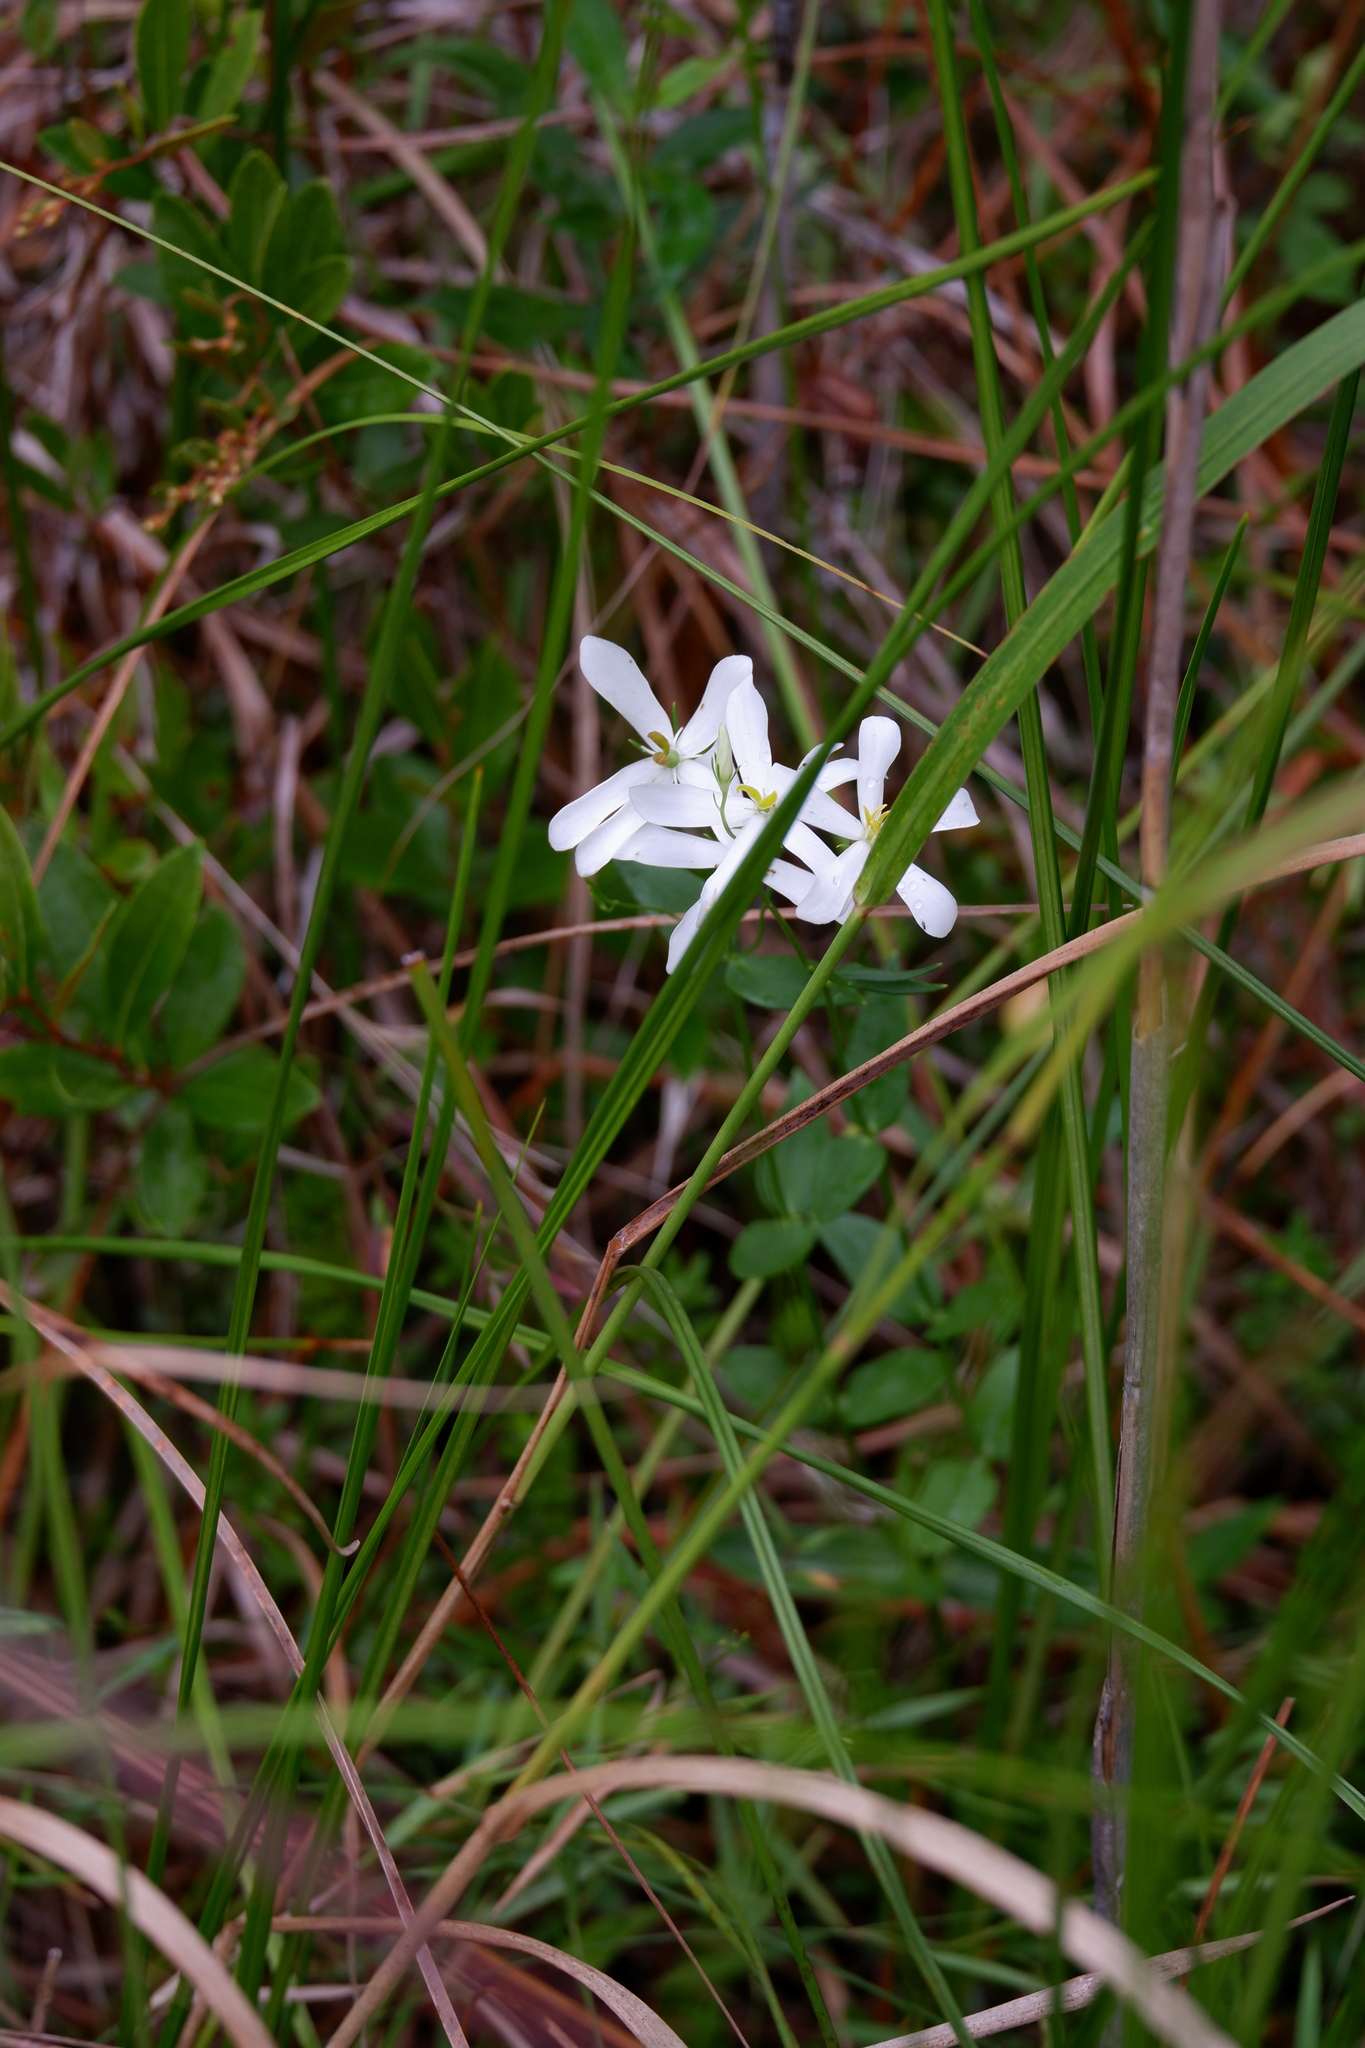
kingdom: Plantae
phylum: Tracheophyta
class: Magnoliopsida
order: Gentianales
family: Gentianaceae
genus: Sabatia
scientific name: Sabatia difformis
